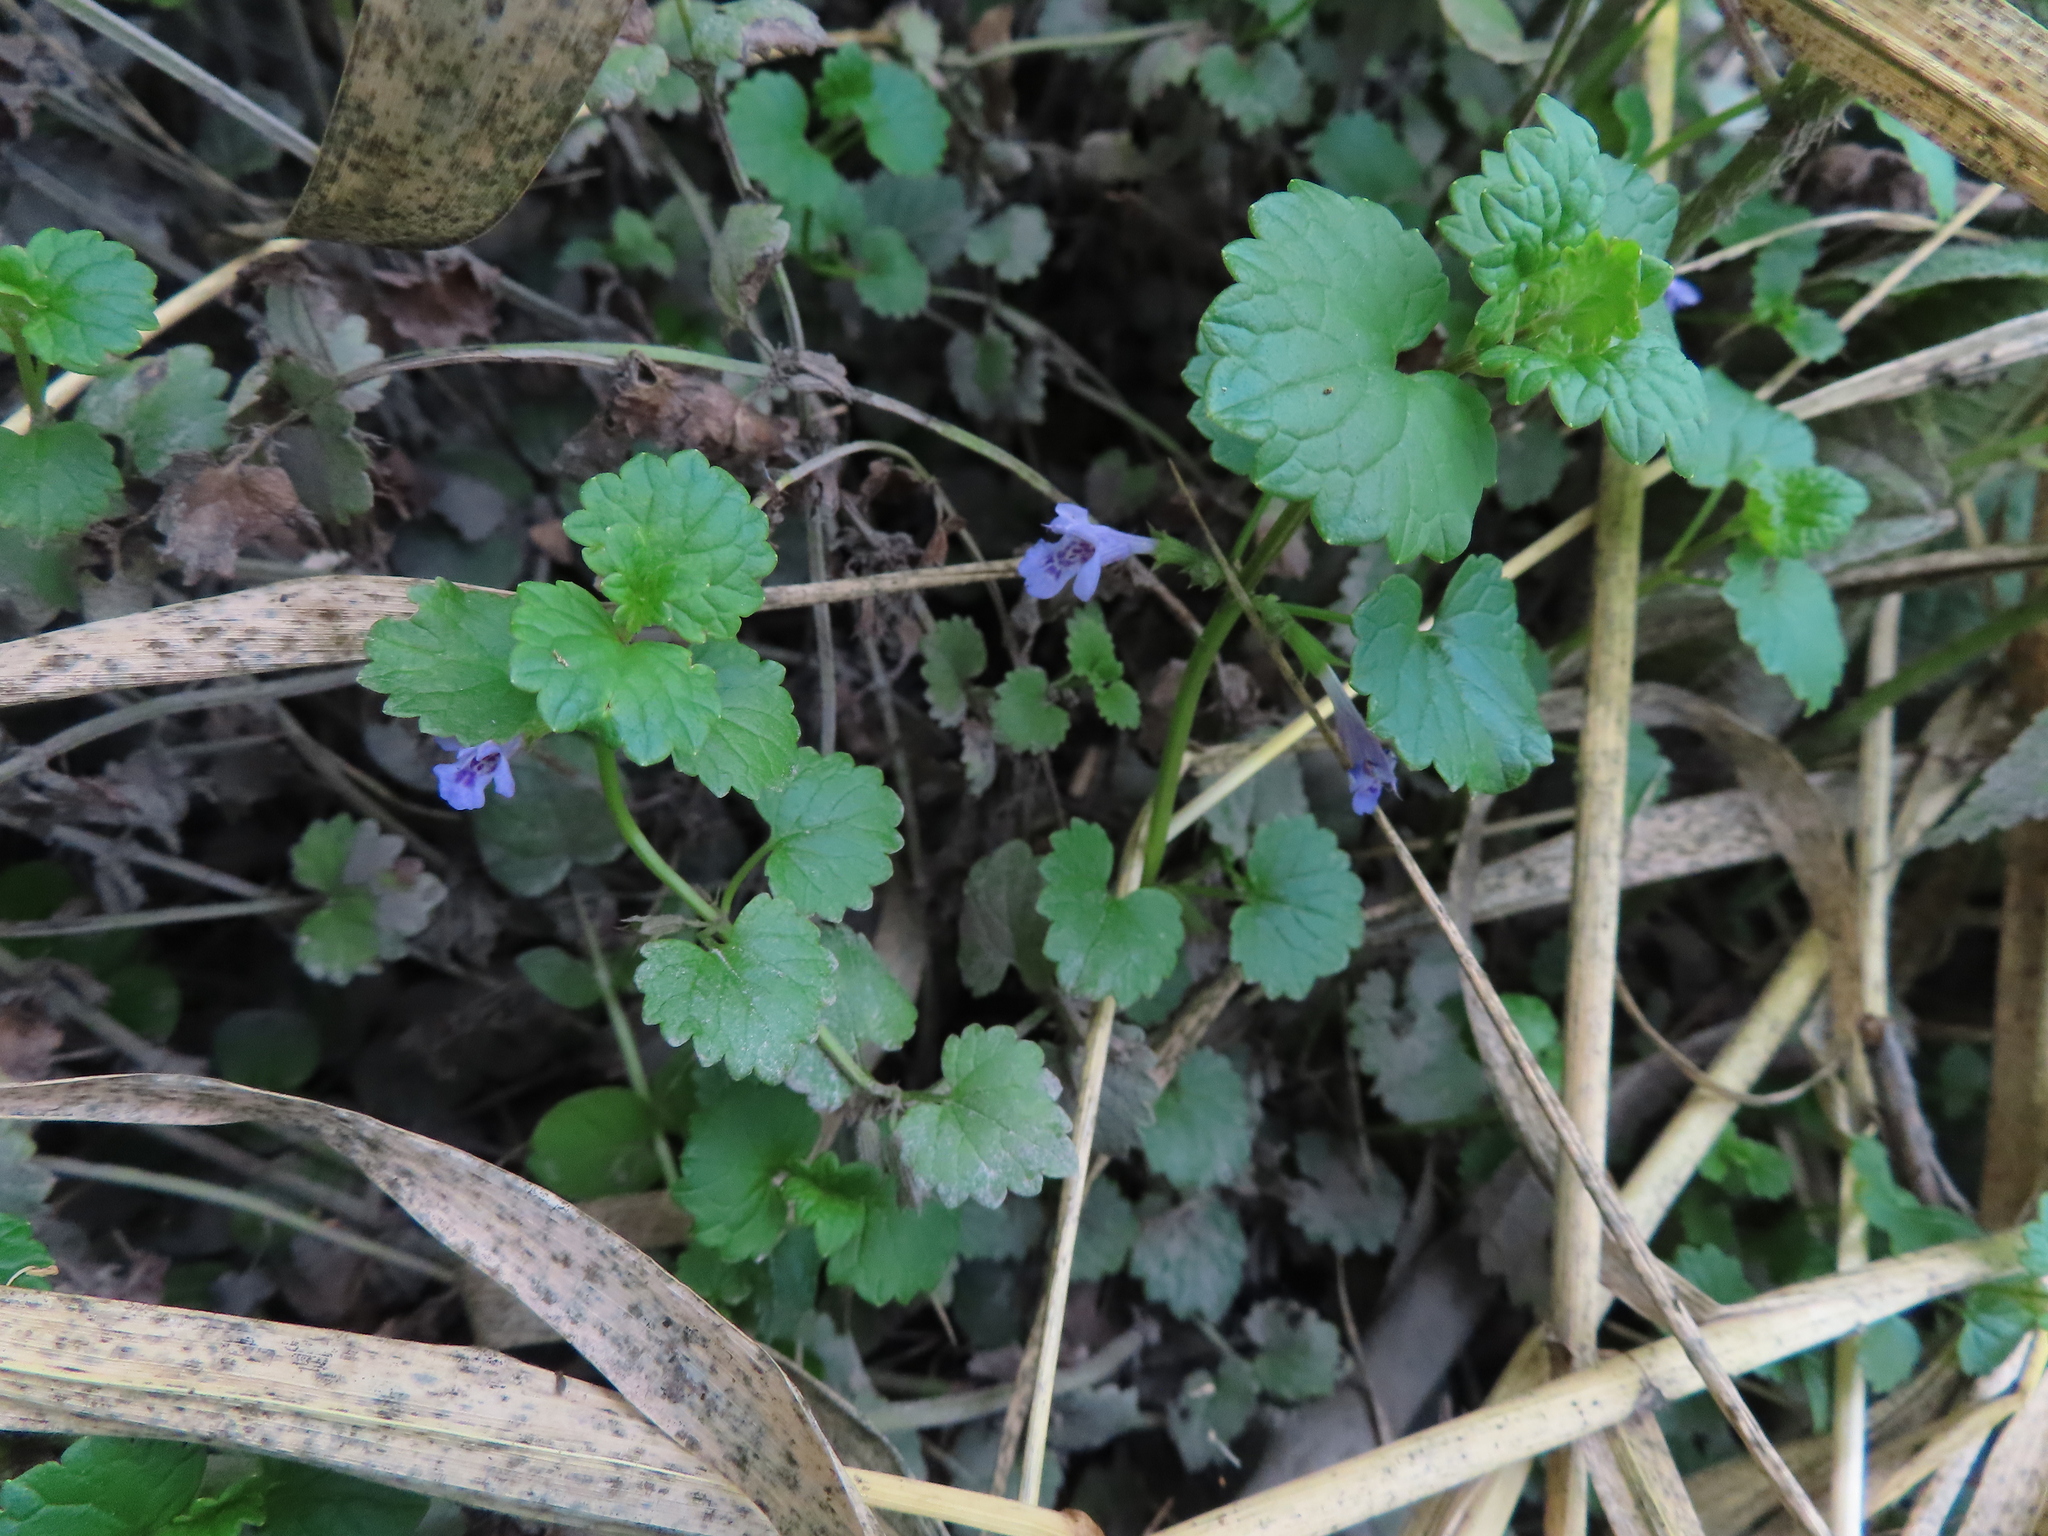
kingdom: Plantae
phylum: Tracheophyta
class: Magnoliopsida
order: Lamiales
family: Lamiaceae
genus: Glechoma
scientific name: Glechoma hederacea
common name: Ground ivy
